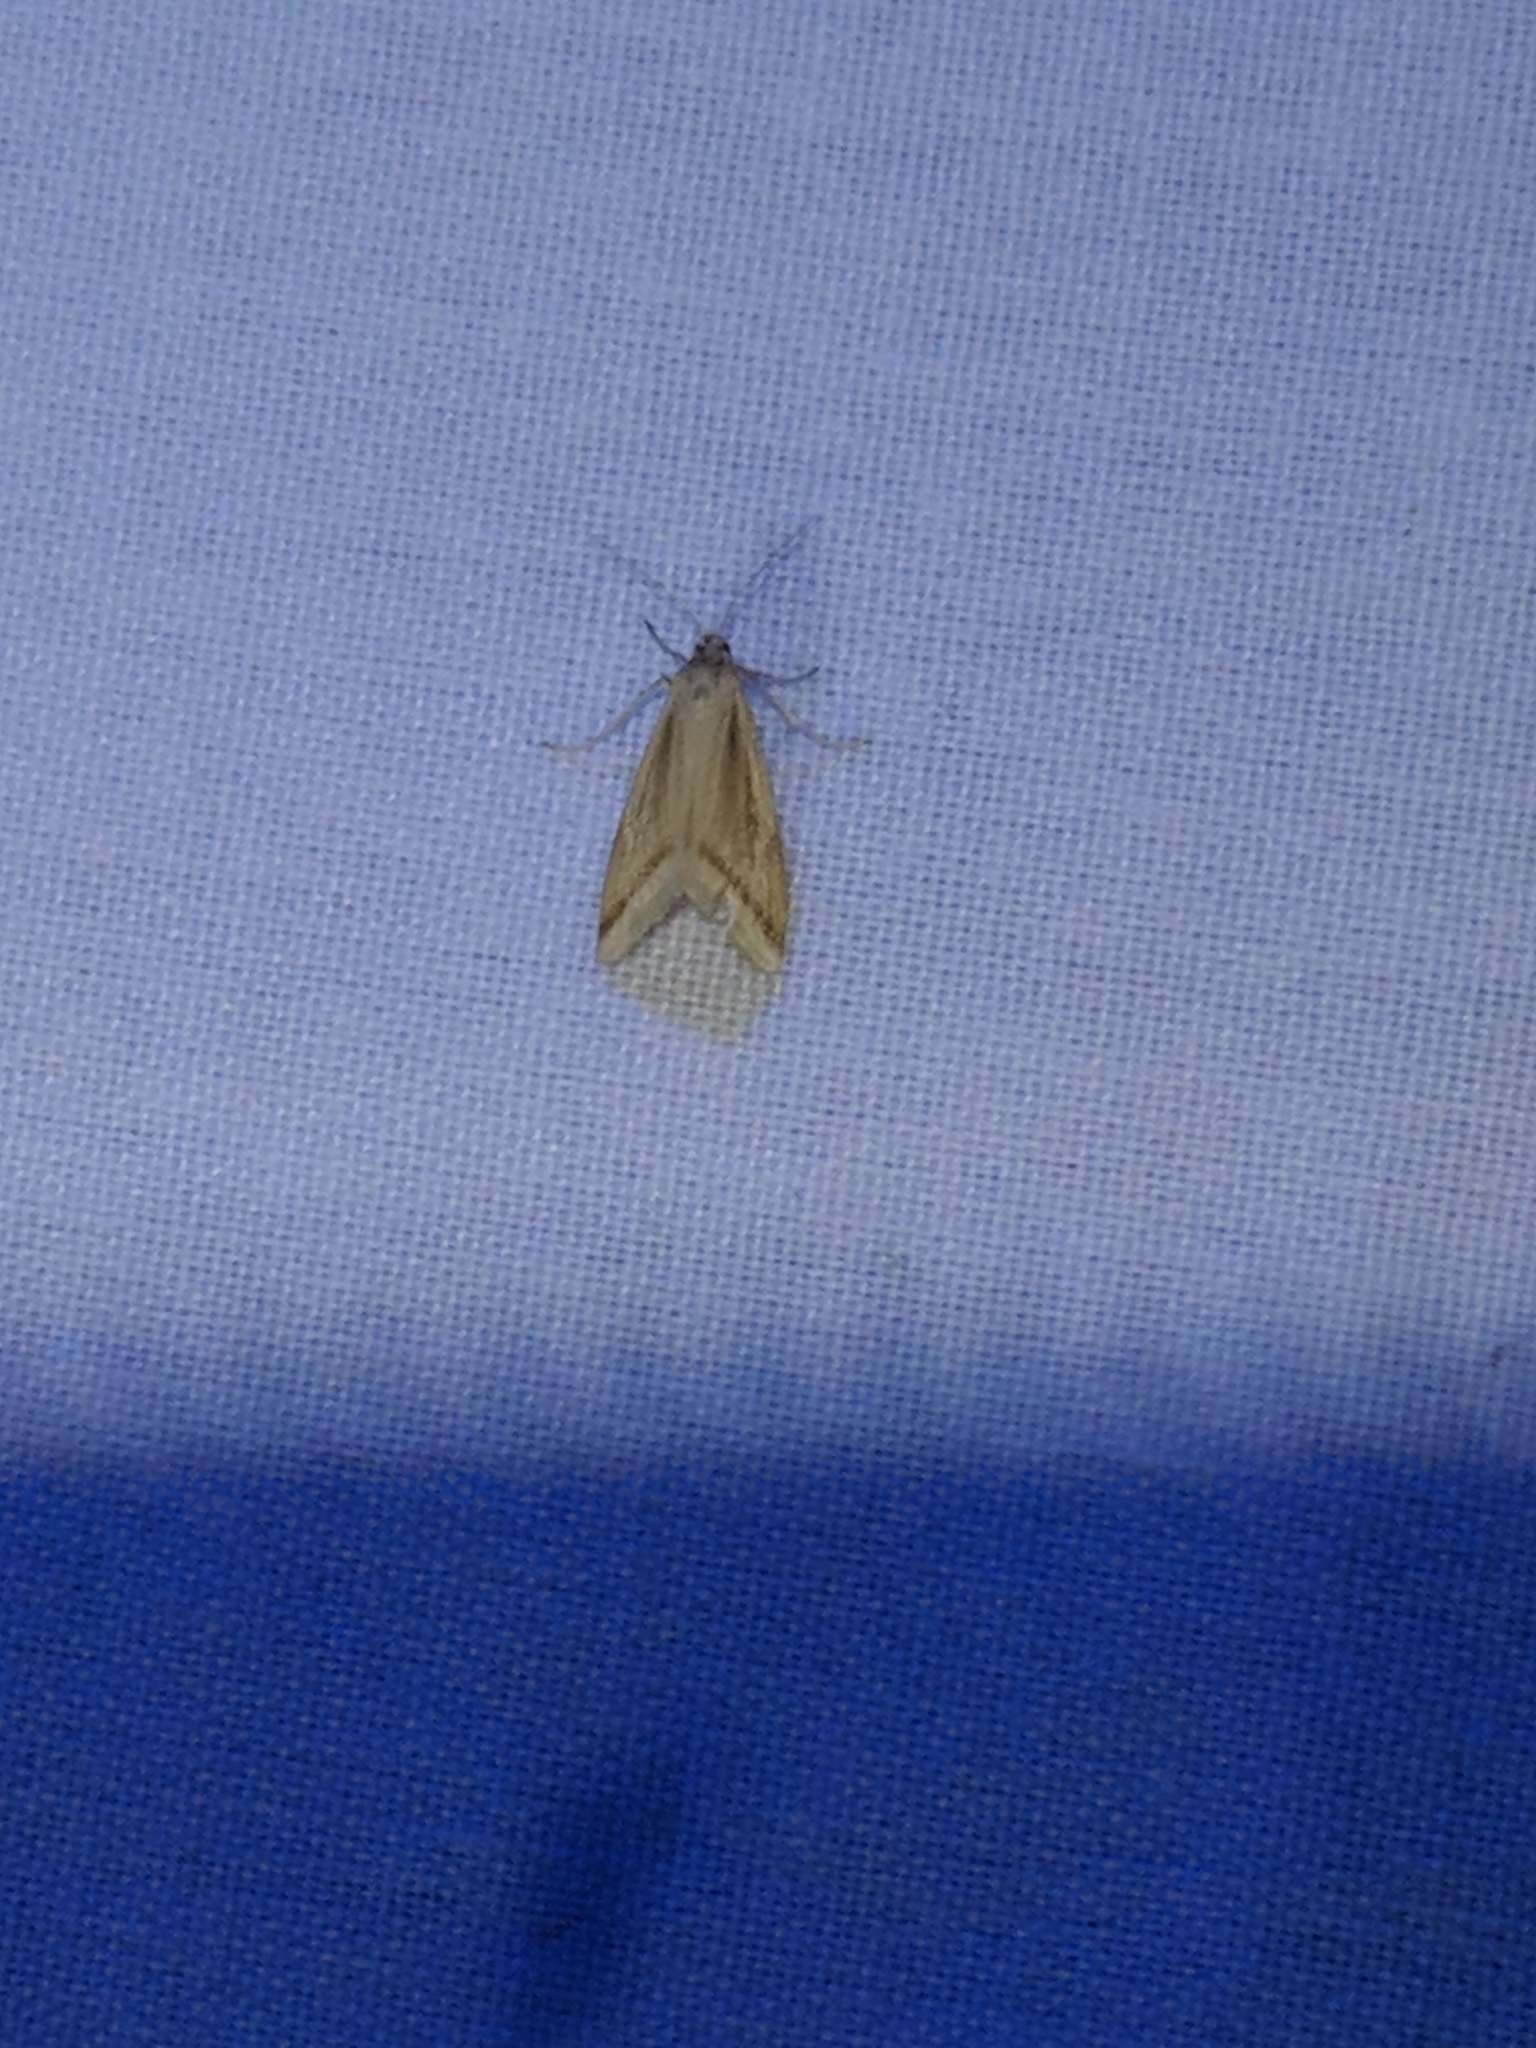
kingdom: Animalia
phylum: Arthropoda
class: Insecta
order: Lepidoptera
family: Crambidae
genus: Microtheoris
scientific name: Microtheoris vibicalis
